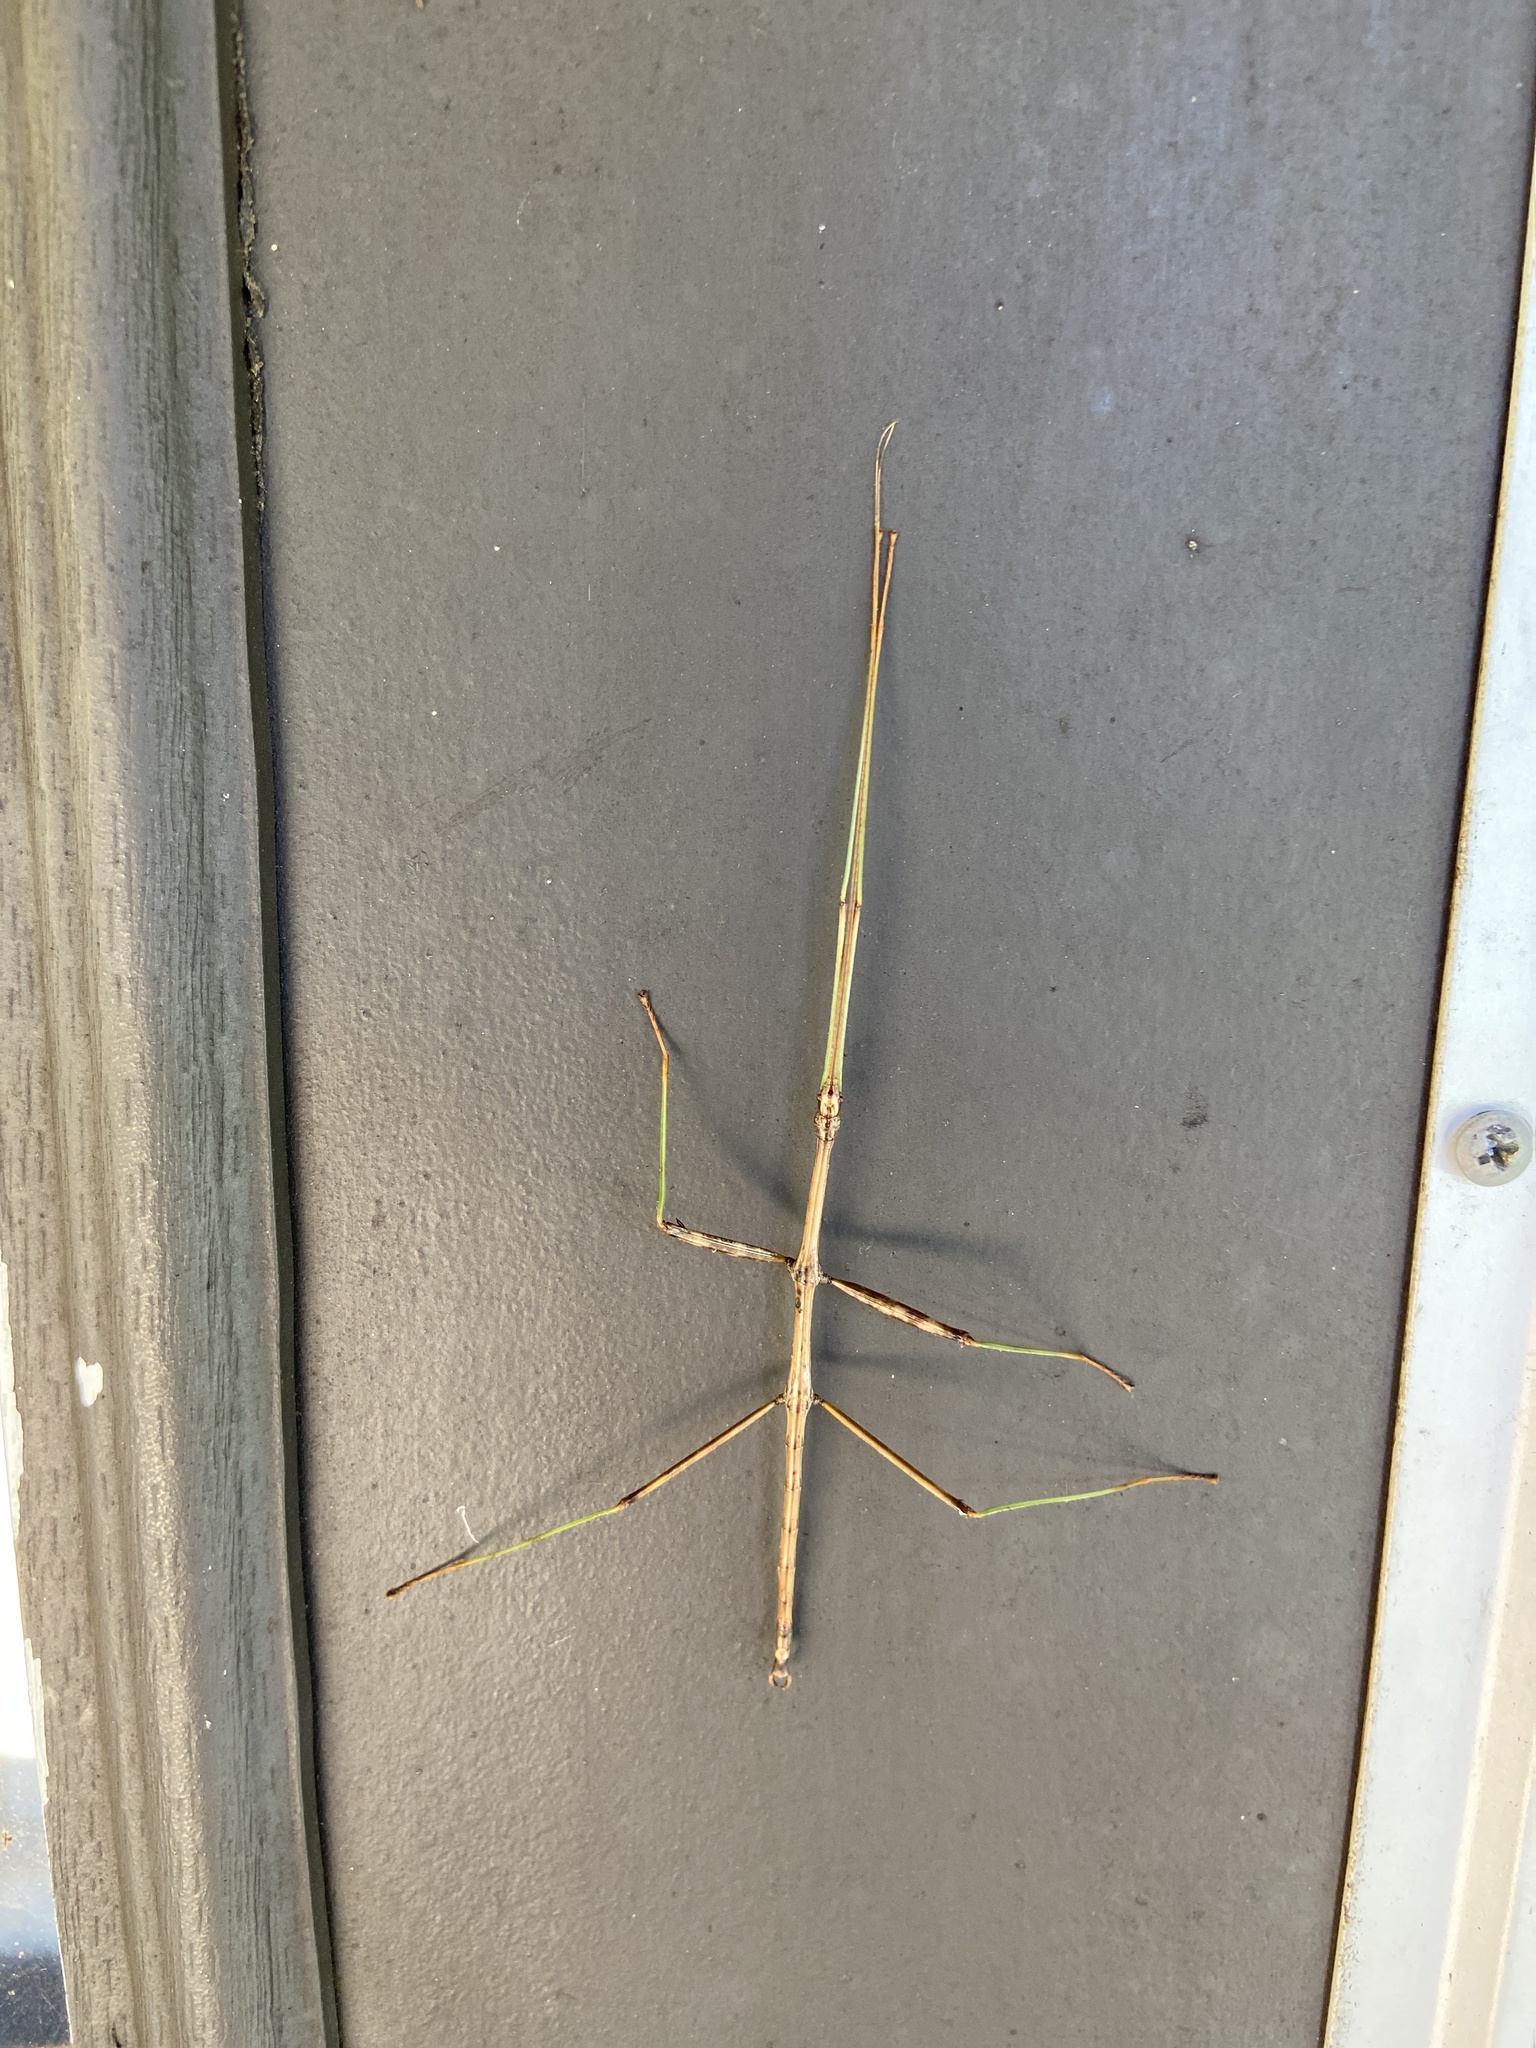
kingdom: Animalia
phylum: Arthropoda
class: Insecta
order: Phasmida
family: Diapheromeridae
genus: Diapheromera
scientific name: Diapheromera femorata
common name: Common american walkingstick
